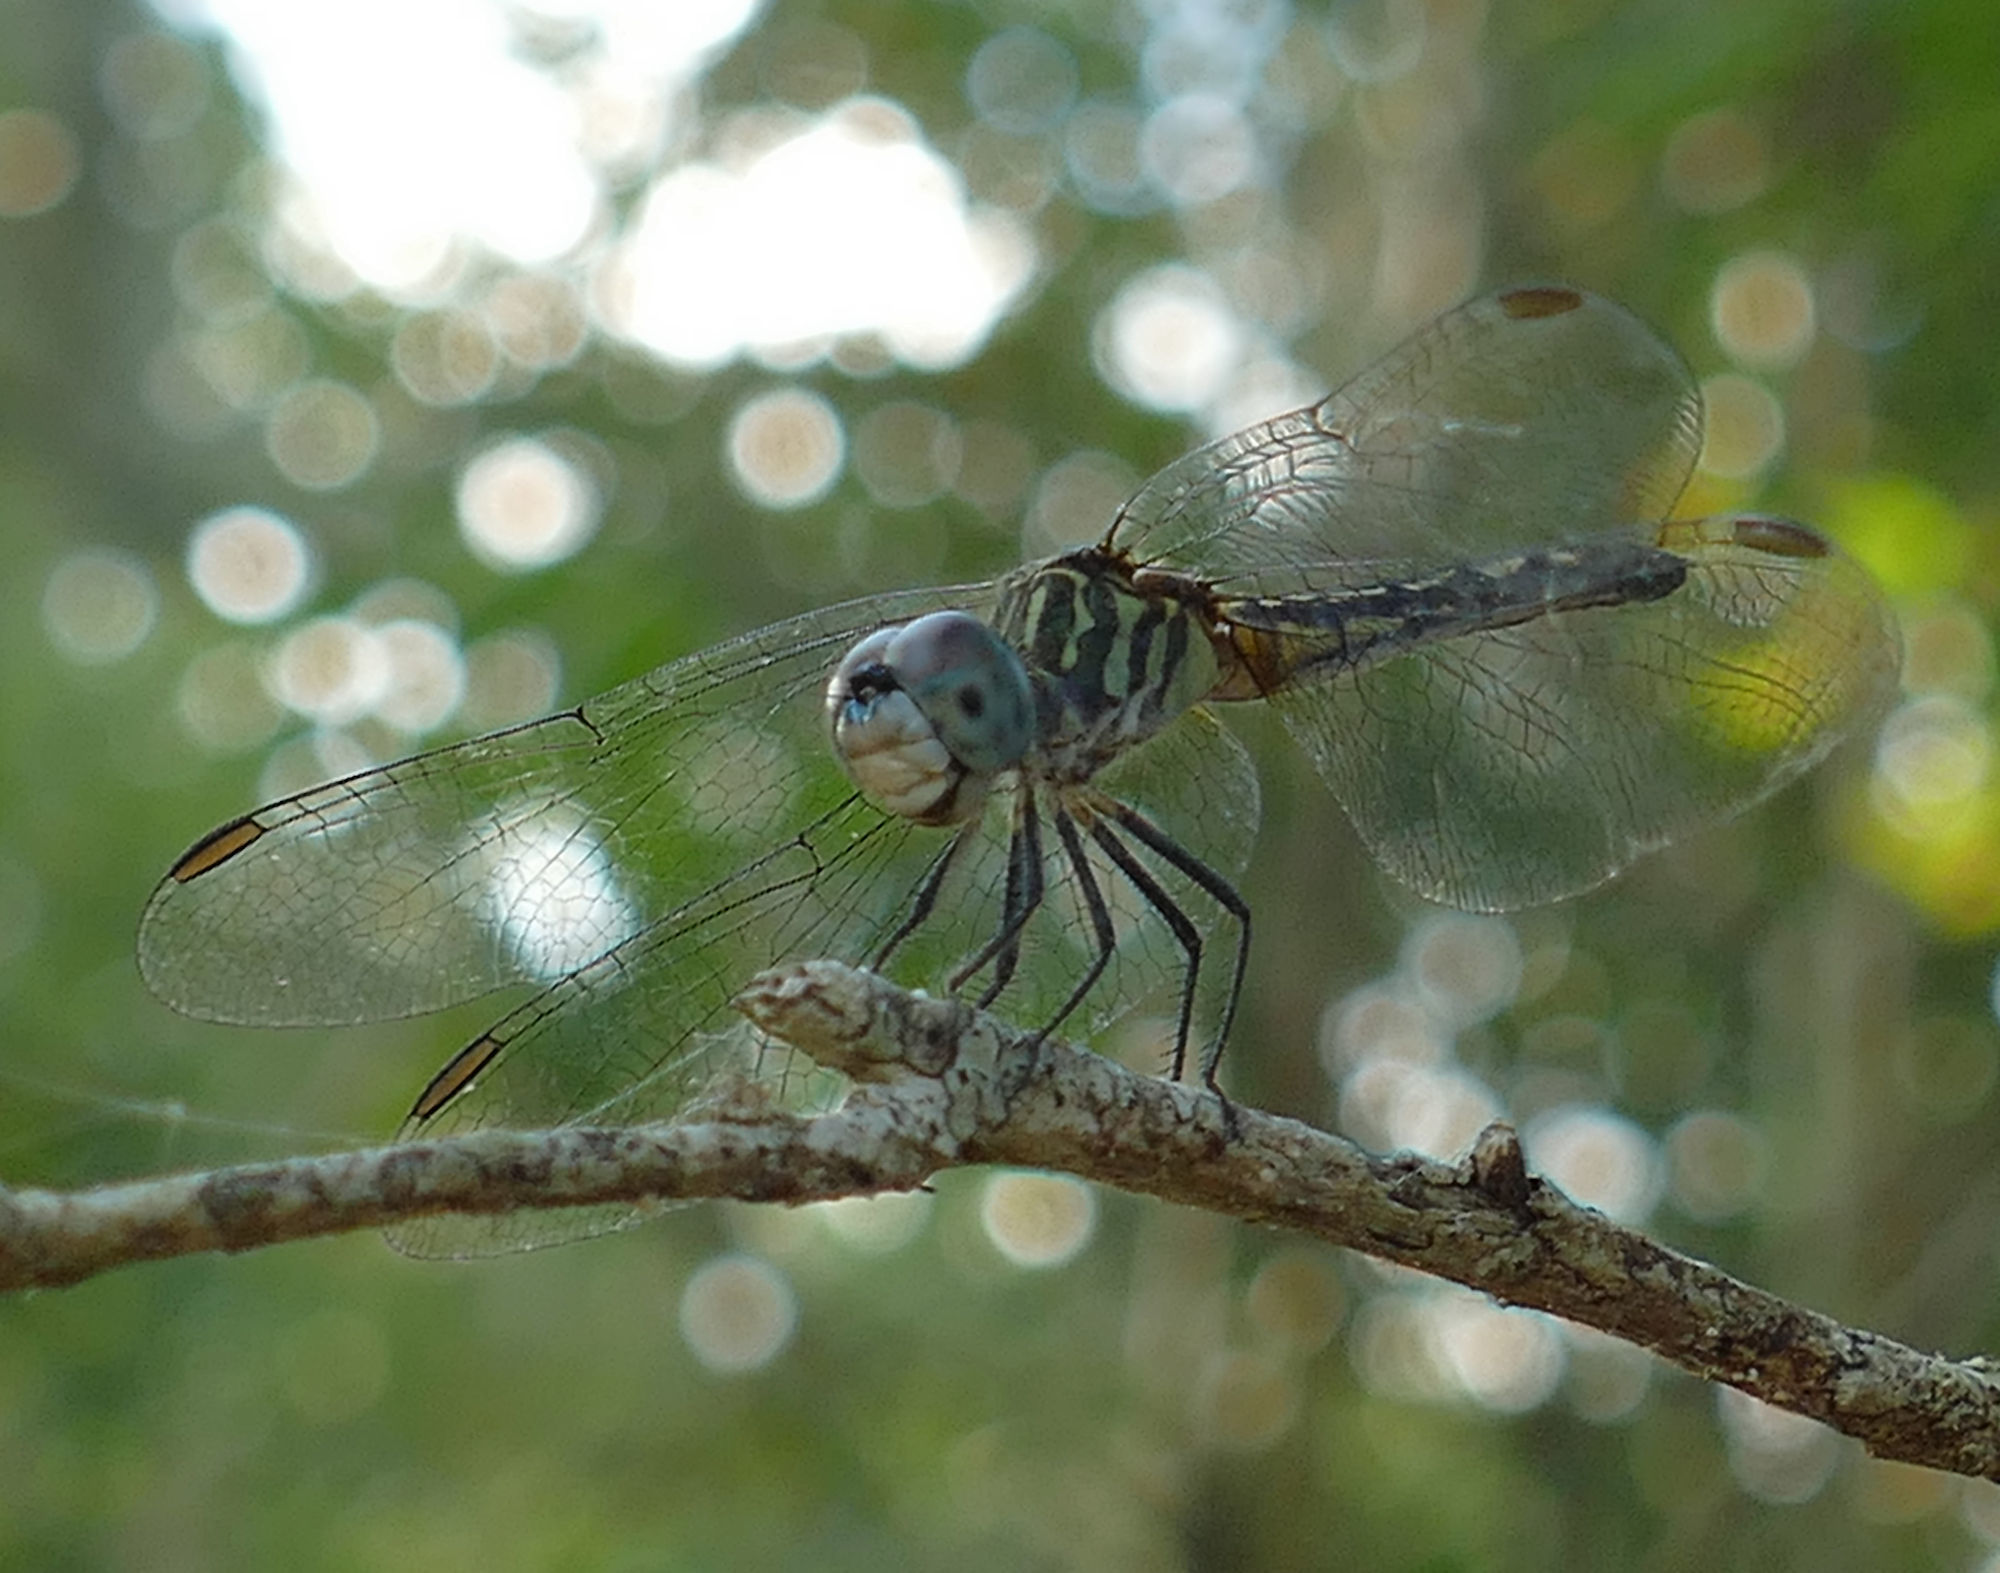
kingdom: Animalia
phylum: Arthropoda
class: Insecta
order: Odonata
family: Libellulidae
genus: Pachydiplax
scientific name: Pachydiplax longipennis
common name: Blue dasher
